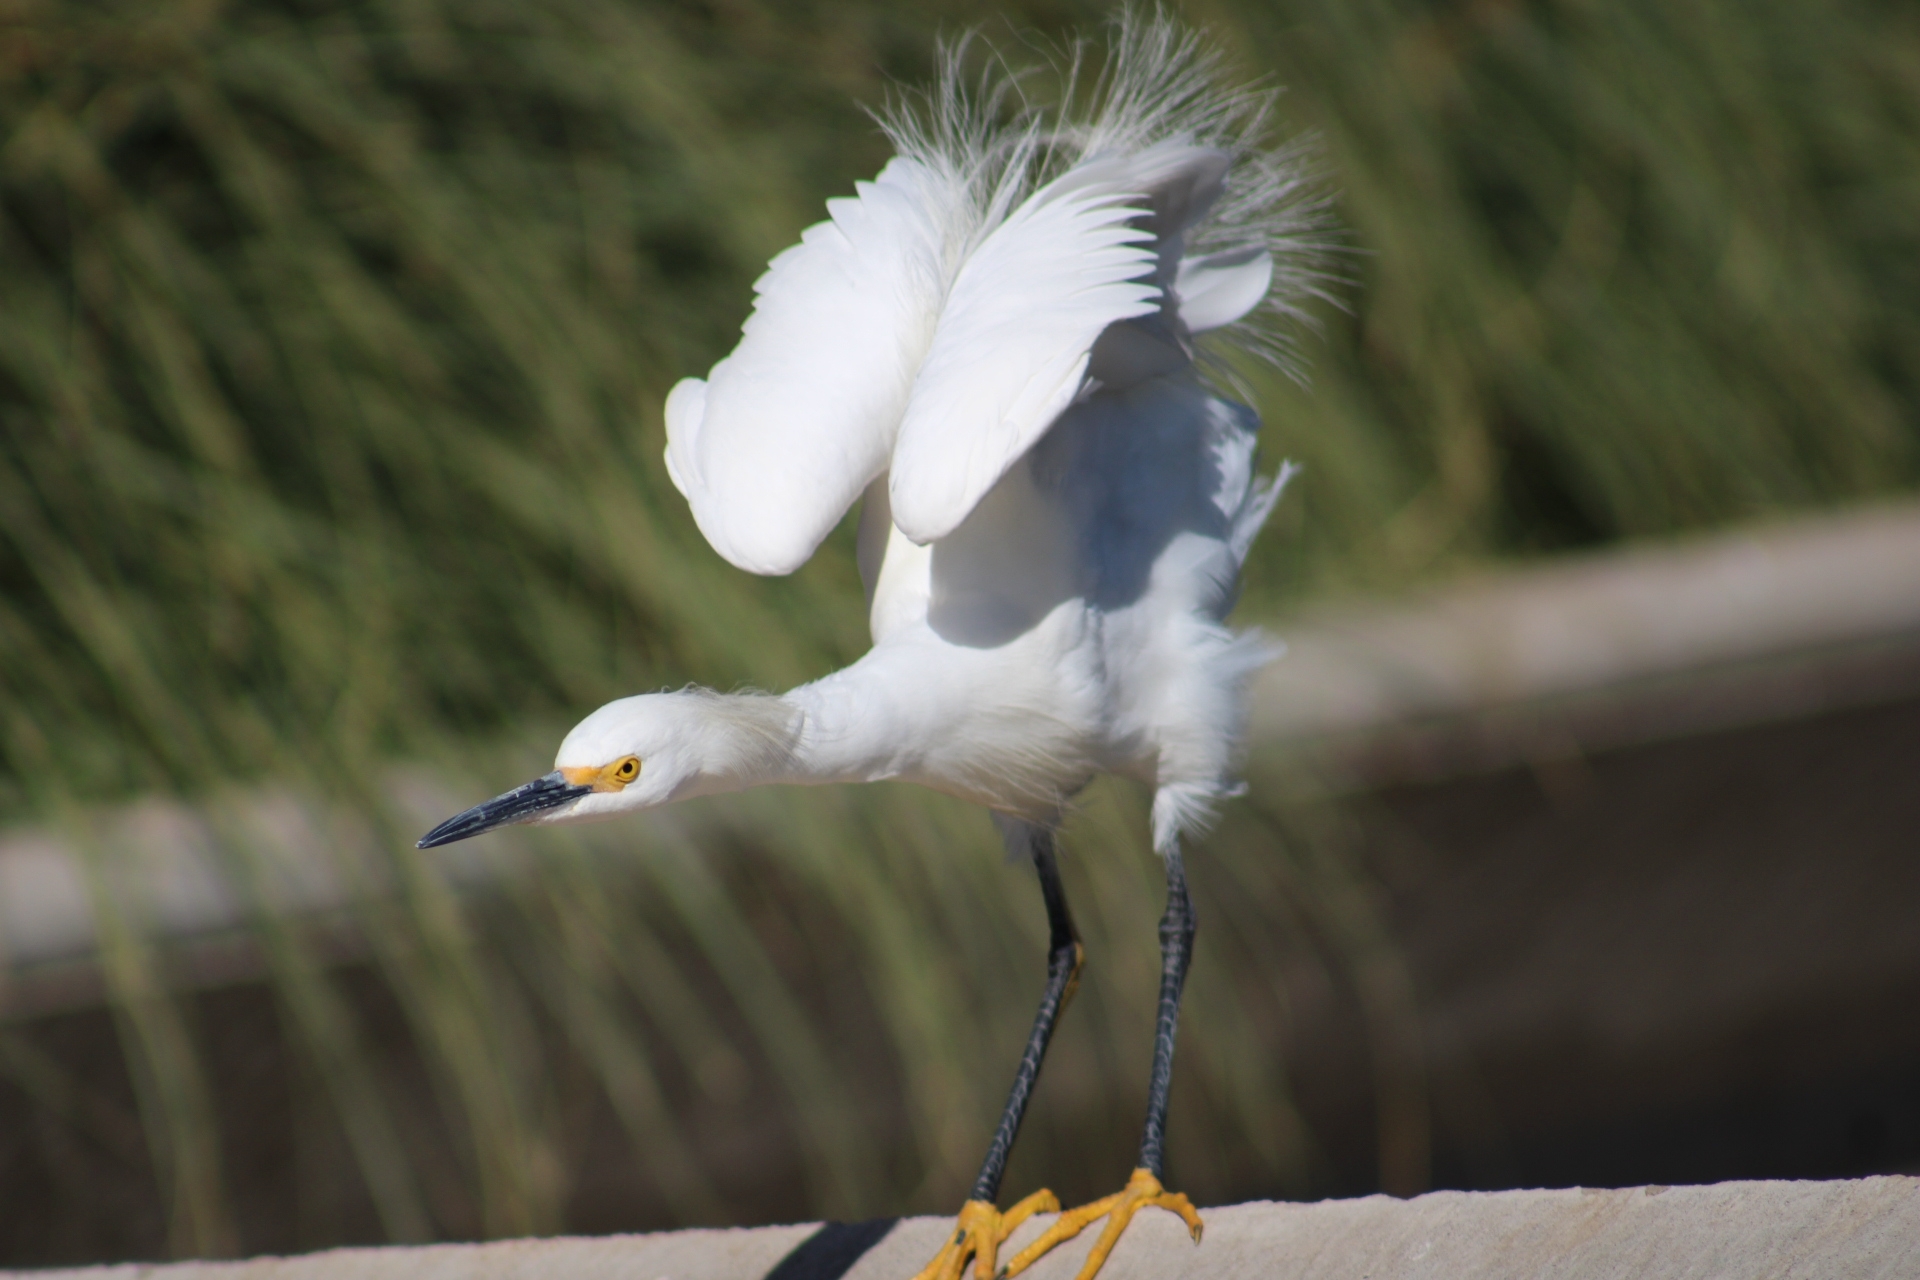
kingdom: Animalia
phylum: Chordata
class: Aves
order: Pelecaniformes
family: Ardeidae
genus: Egretta
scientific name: Egretta thula
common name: Snowy egret
